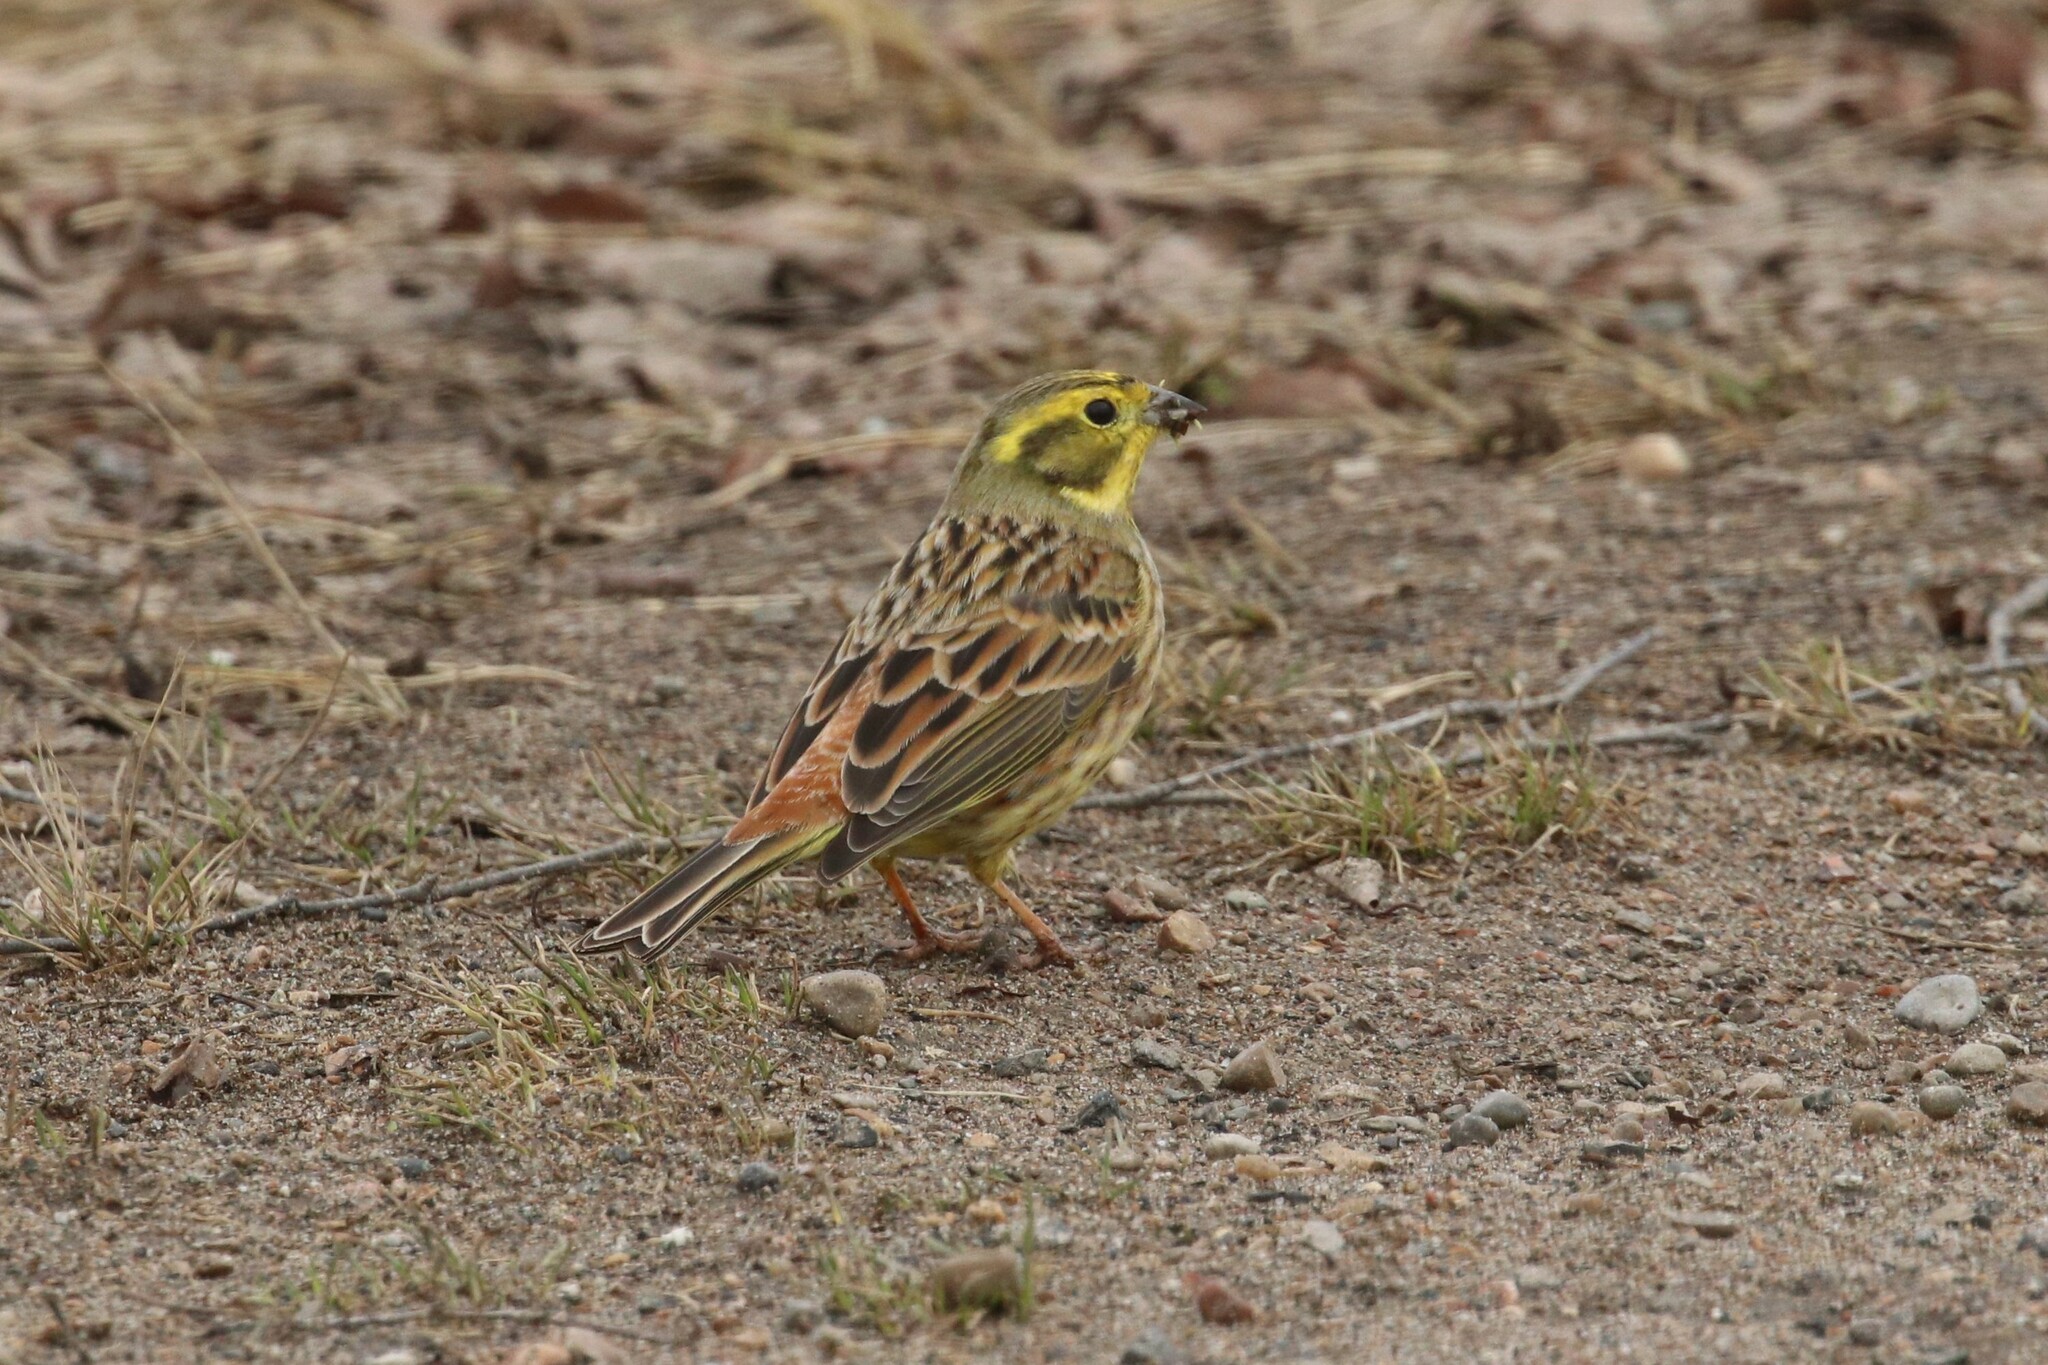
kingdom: Animalia
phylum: Chordata
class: Aves
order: Passeriformes
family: Emberizidae
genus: Emberiza
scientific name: Emberiza citrinella
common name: Yellowhammer
